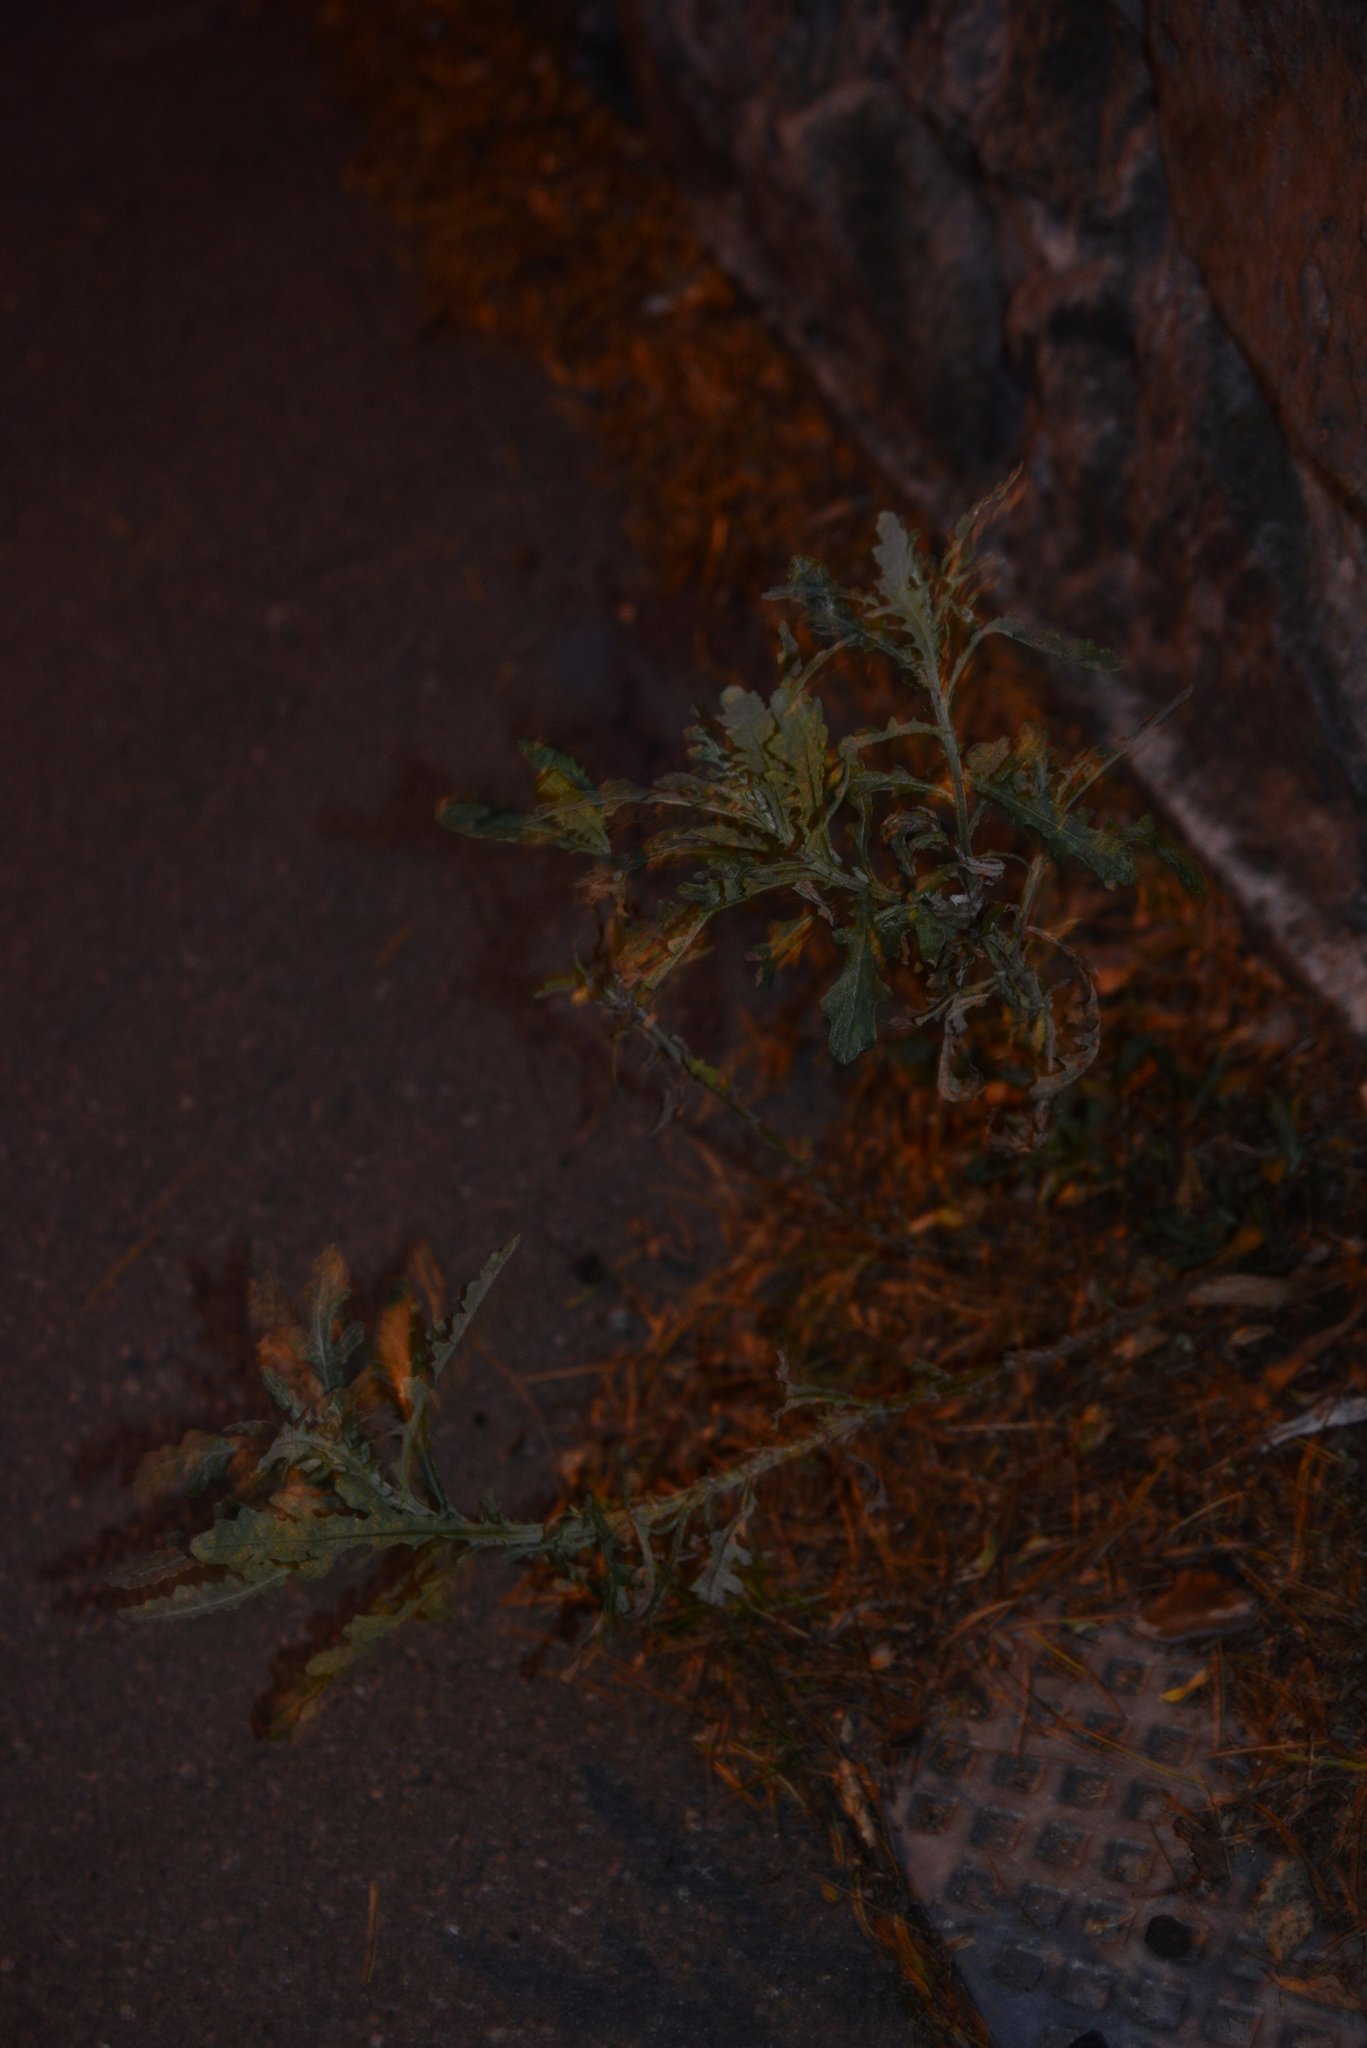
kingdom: Plantae
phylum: Tracheophyta
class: Magnoliopsida
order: Asterales
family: Asteraceae
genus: Senecio
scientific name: Senecio glomeratus
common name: Cutleaf burnweed
